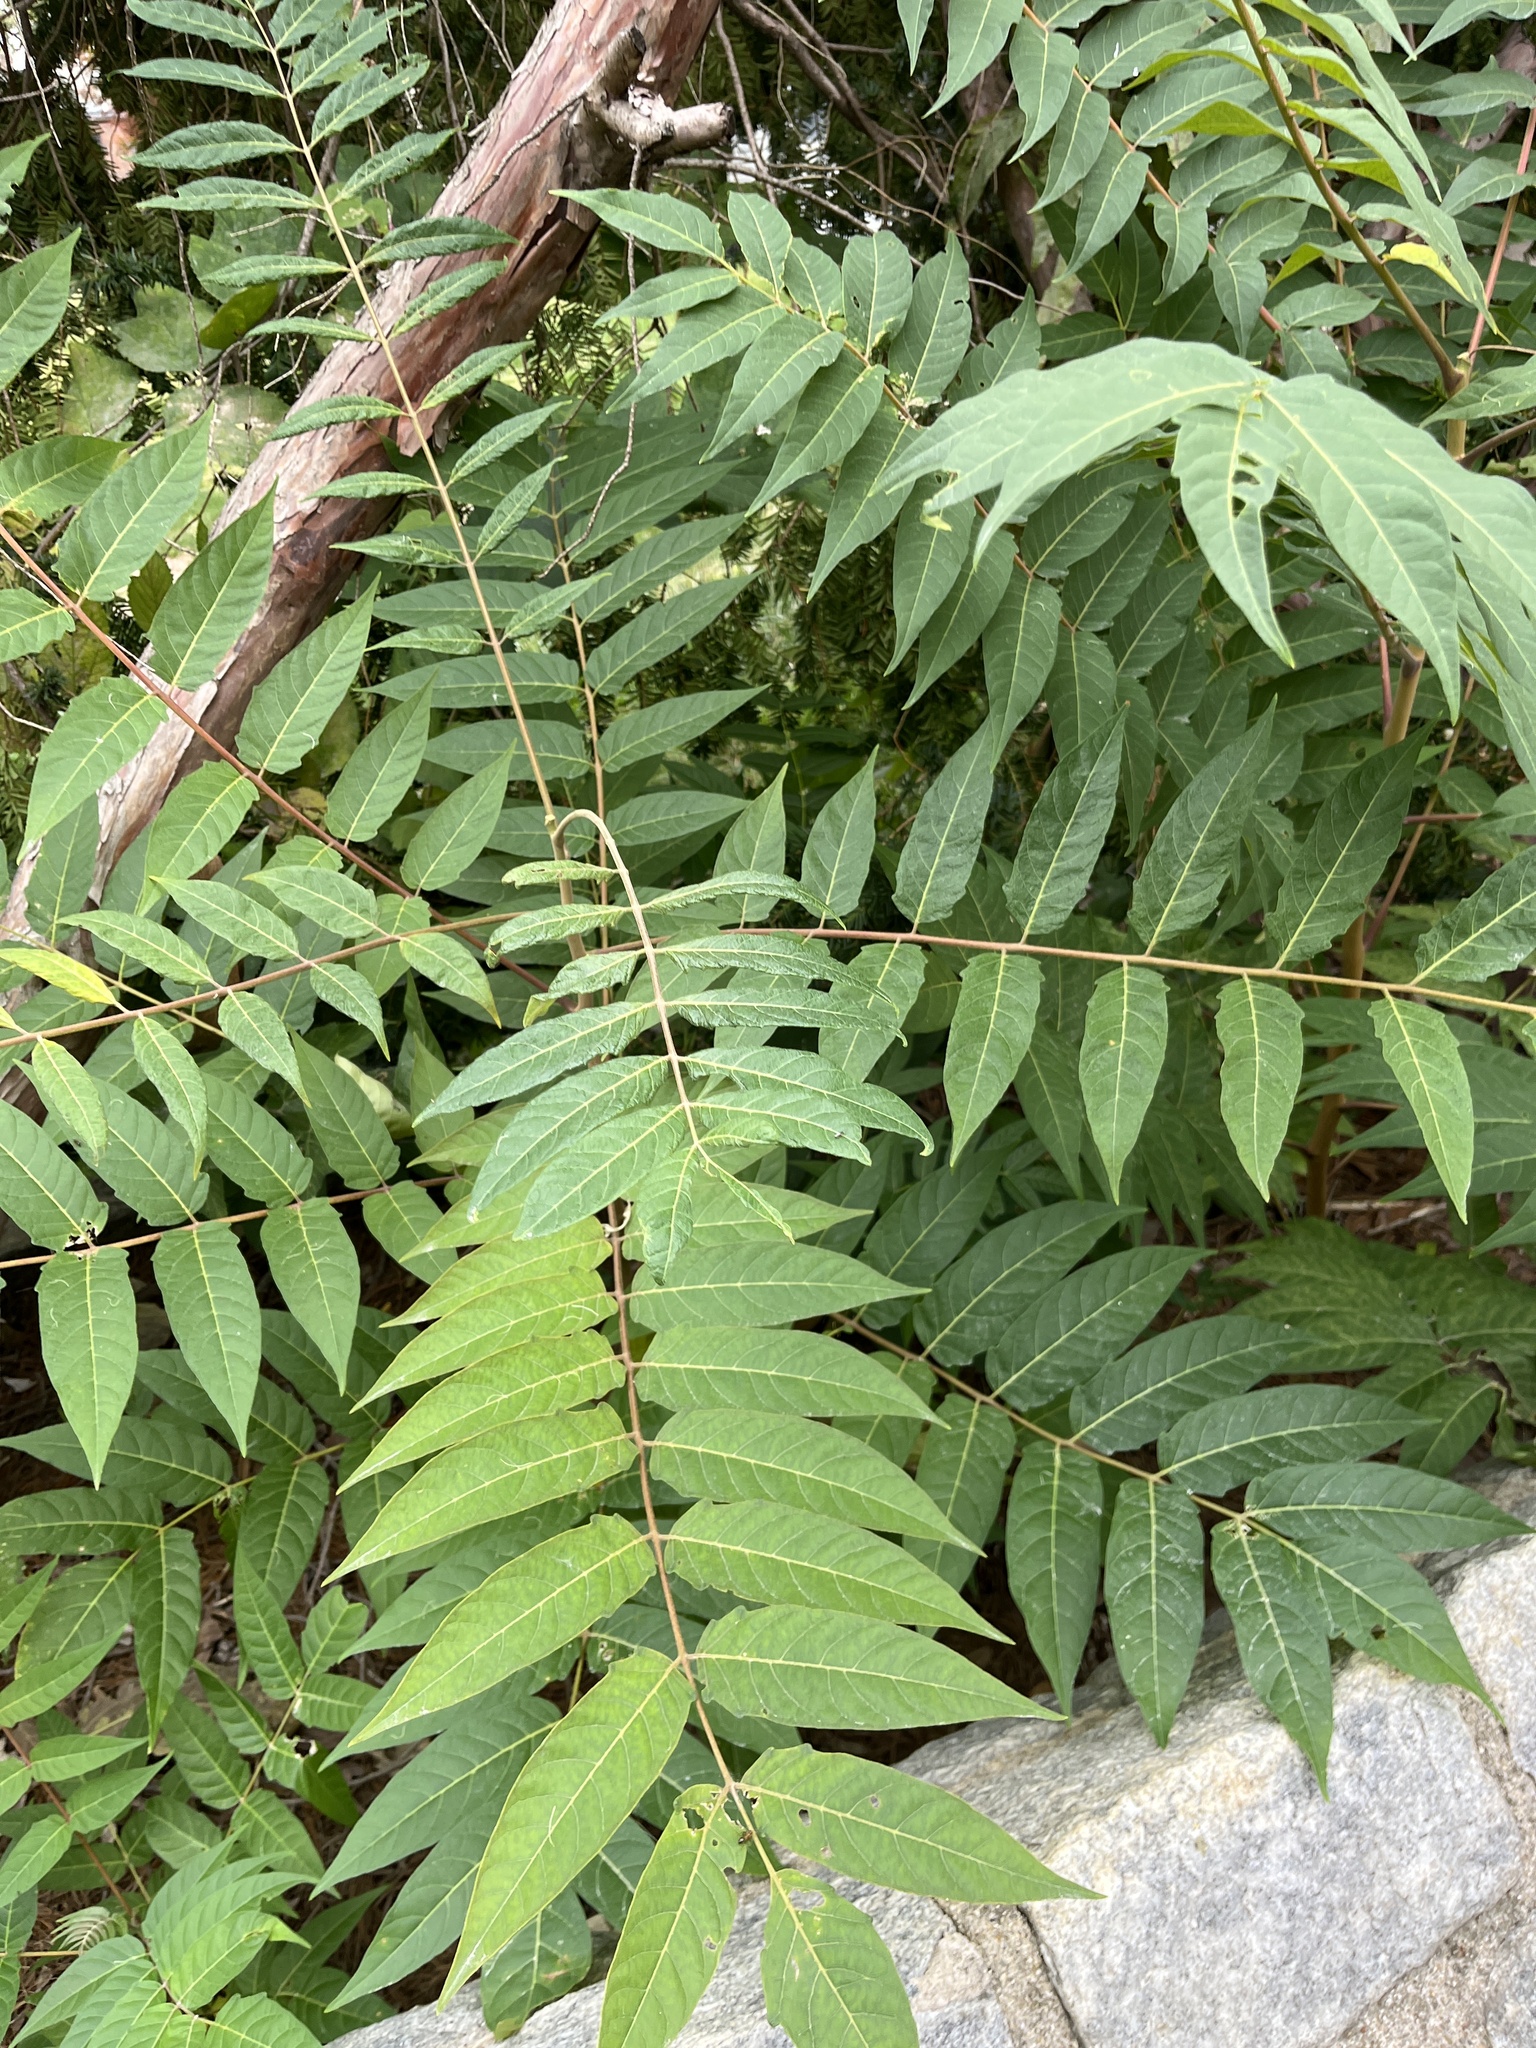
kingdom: Plantae
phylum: Tracheophyta
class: Magnoliopsida
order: Sapindales
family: Simaroubaceae
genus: Ailanthus
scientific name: Ailanthus altissima
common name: Tree-of-heaven
